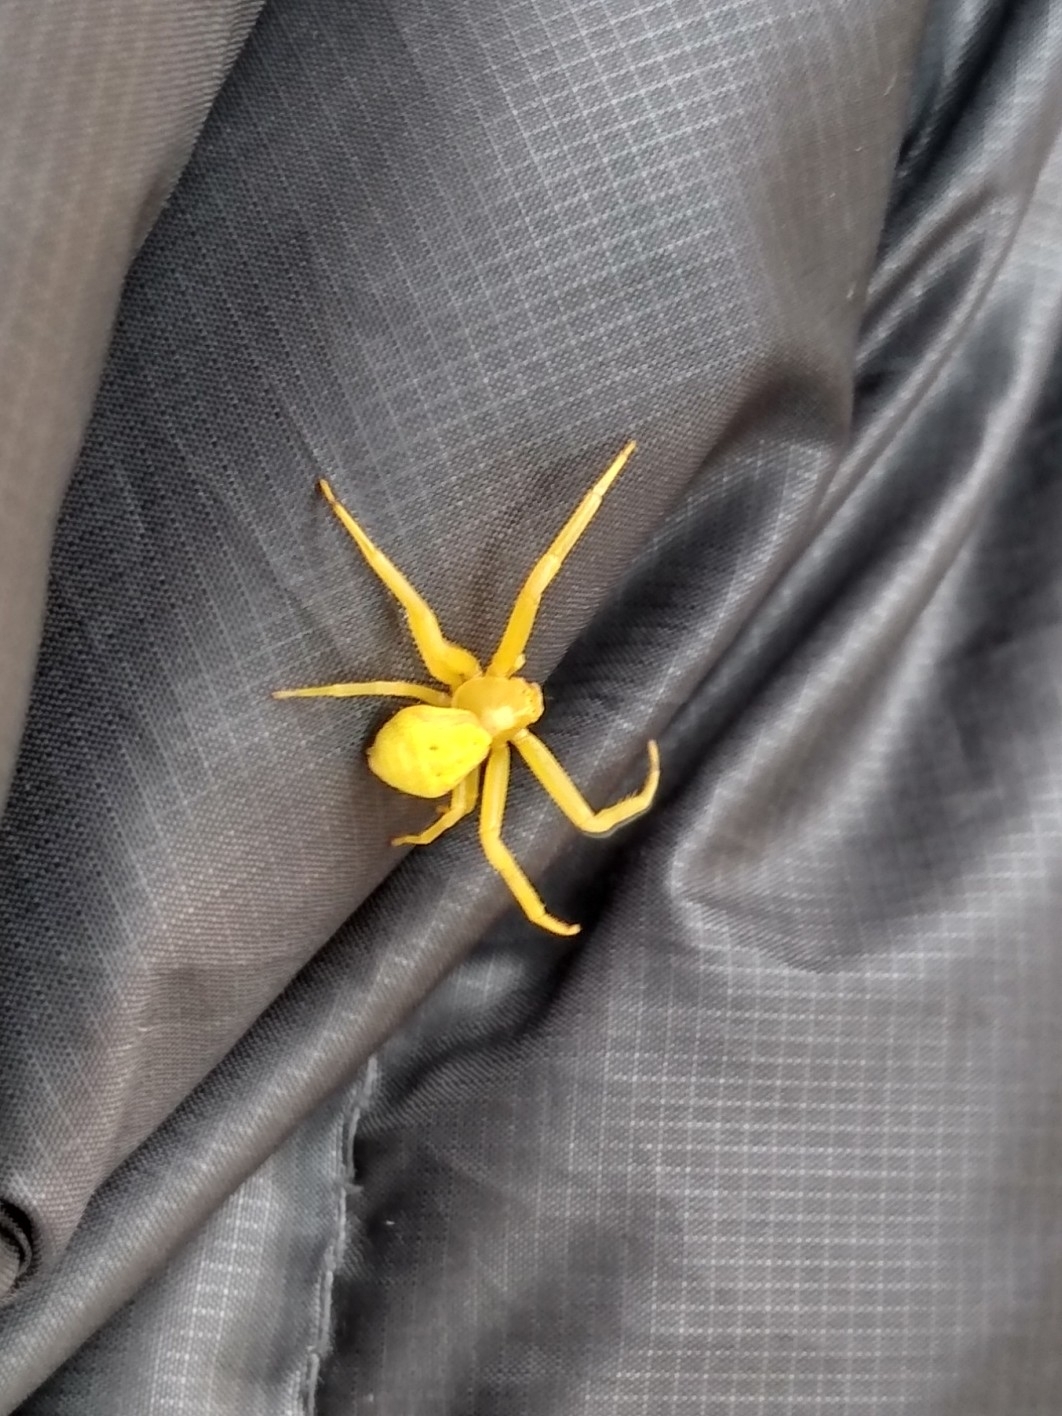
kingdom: Animalia
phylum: Arthropoda
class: Arachnida
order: Araneae
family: Thomisidae
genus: Misumena
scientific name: Misumena vatia
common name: Goldenrod crab spider
